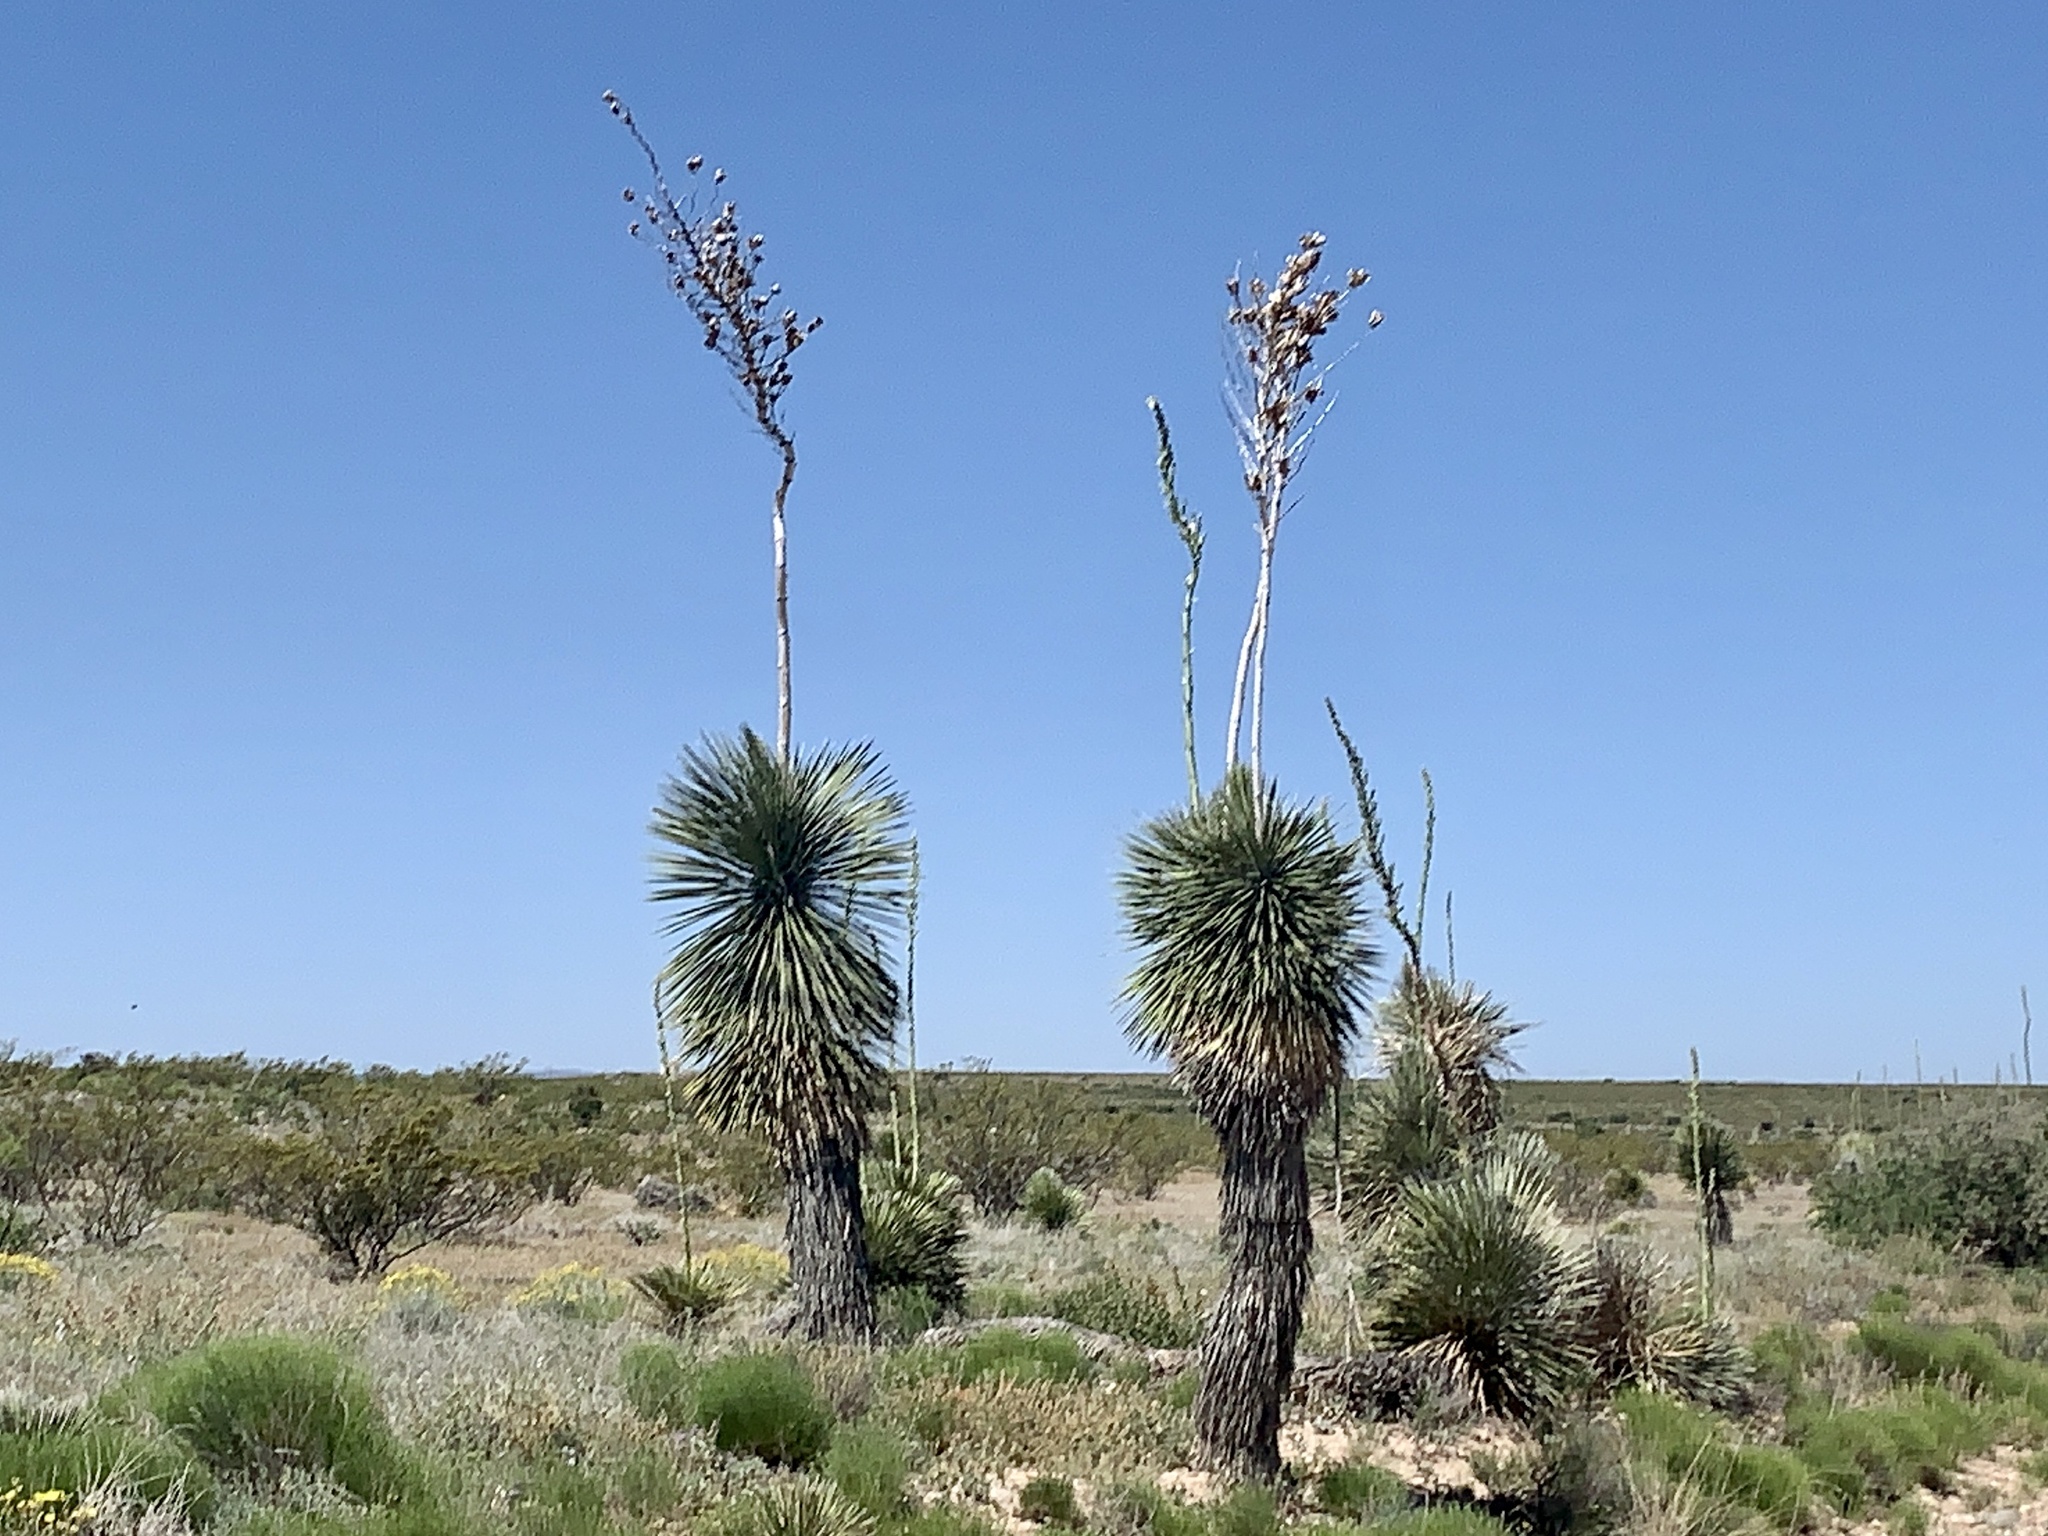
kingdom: Plantae
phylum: Tracheophyta
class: Liliopsida
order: Asparagales
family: Asparagaceae
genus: Yucca
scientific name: Yucca elata
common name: Palmella
